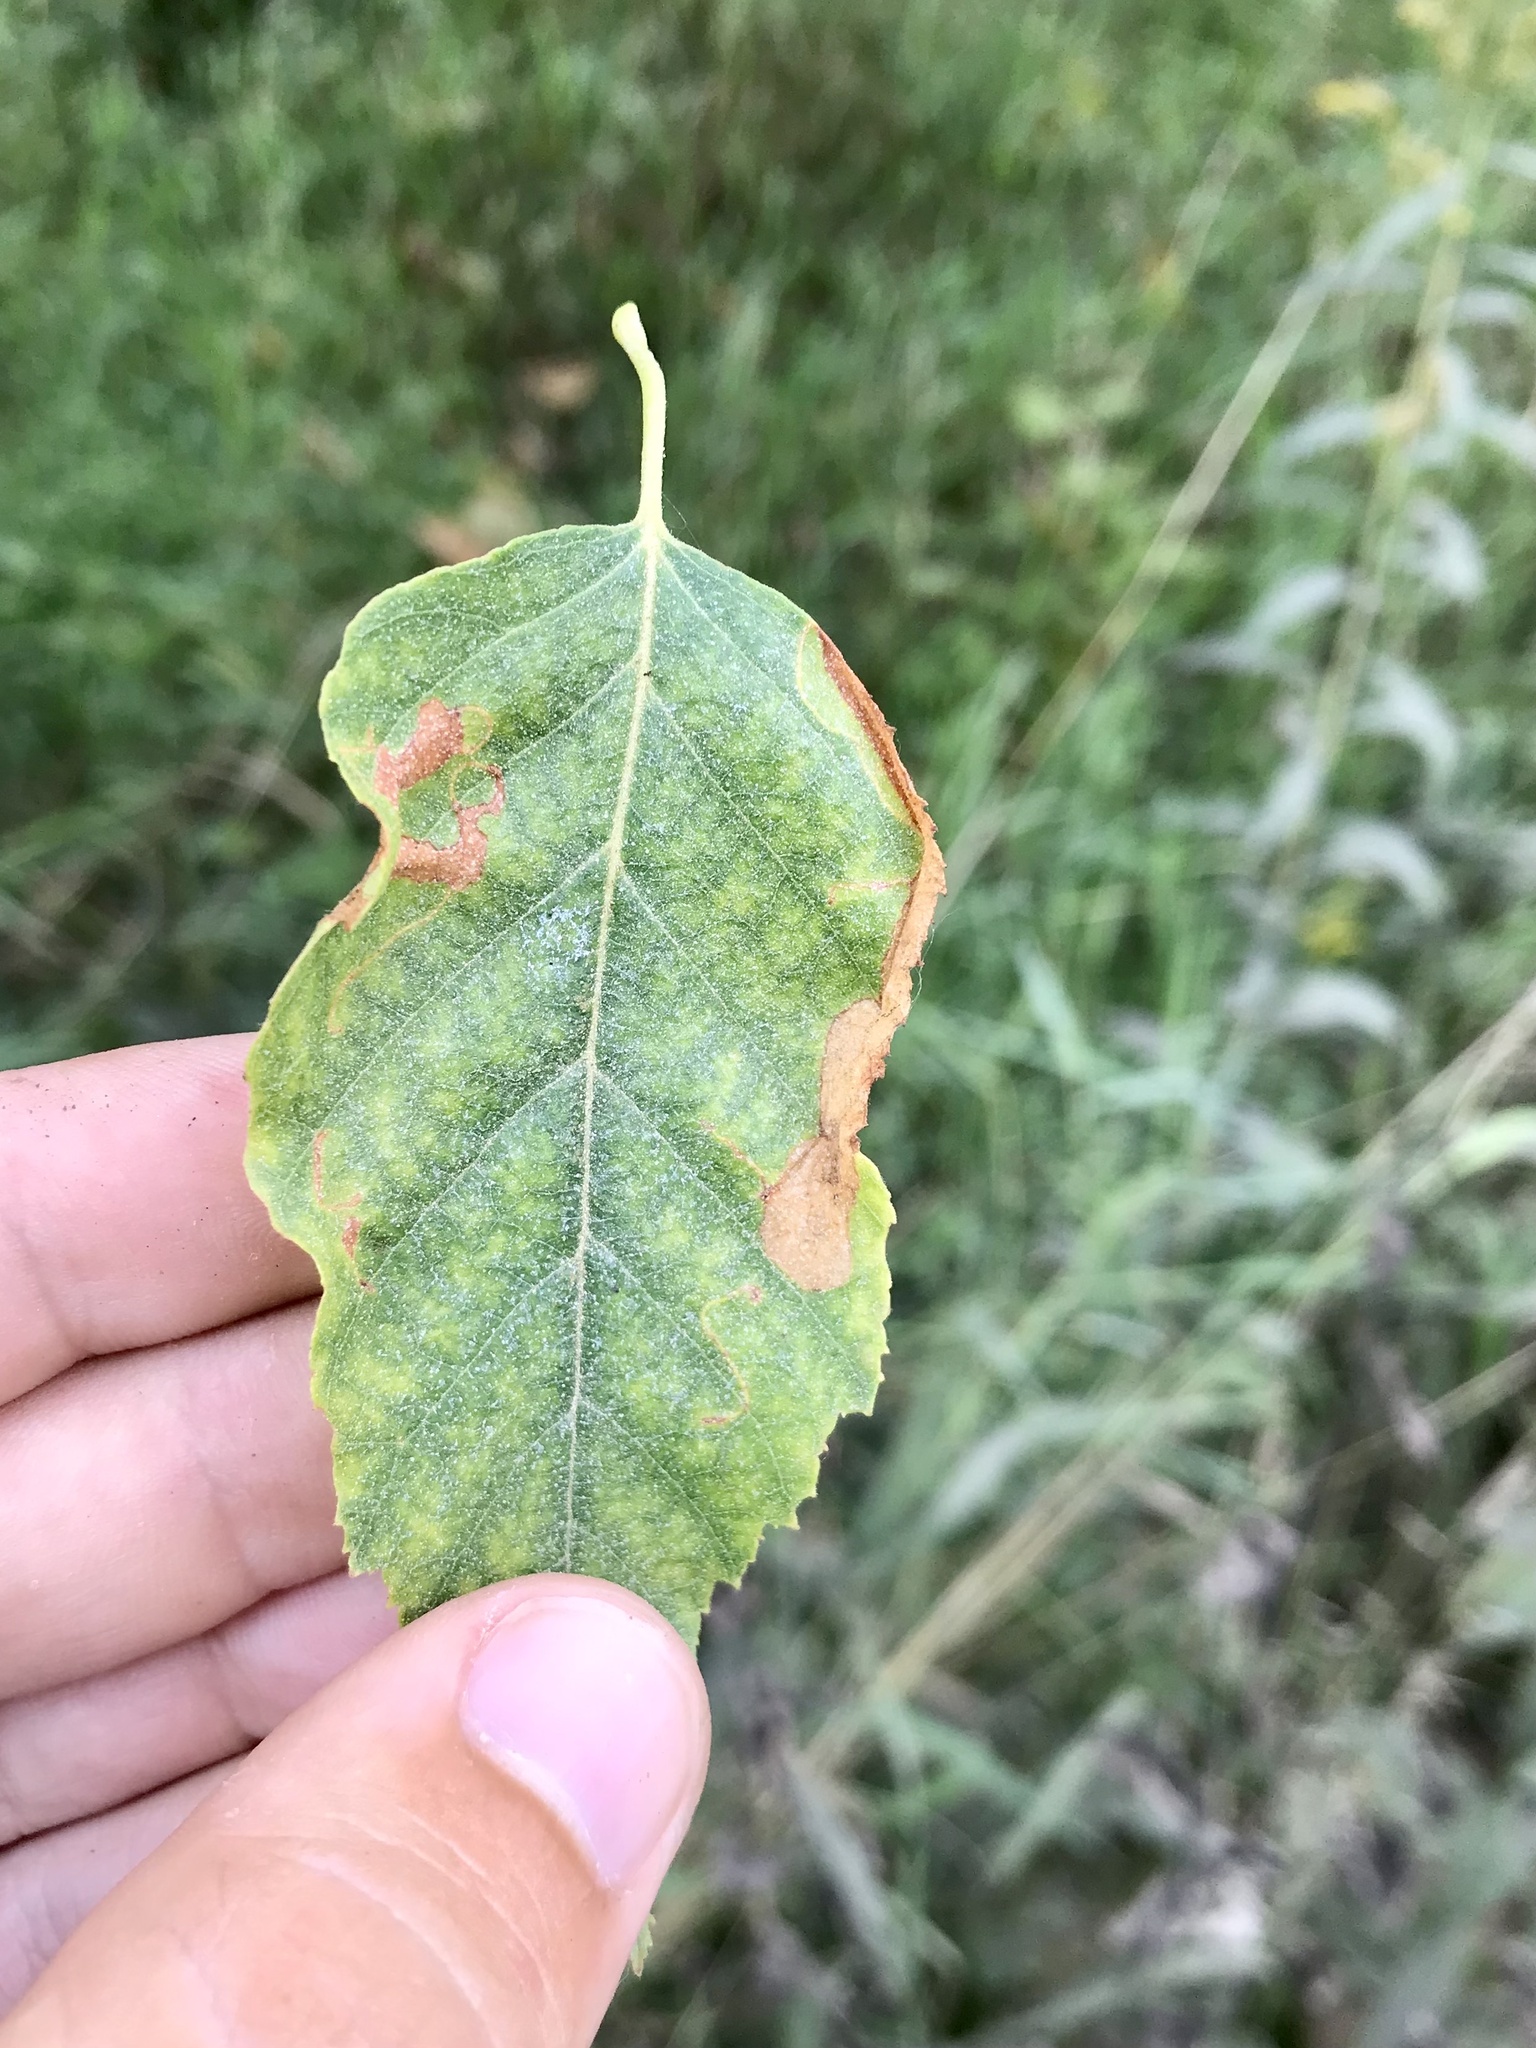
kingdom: Animalia
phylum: Arthropoda
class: Insecta
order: Lepidoptera
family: Lyonetiidae
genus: Lyonetia
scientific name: Lyonetia prunifoliella
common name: Striped bent-wing
